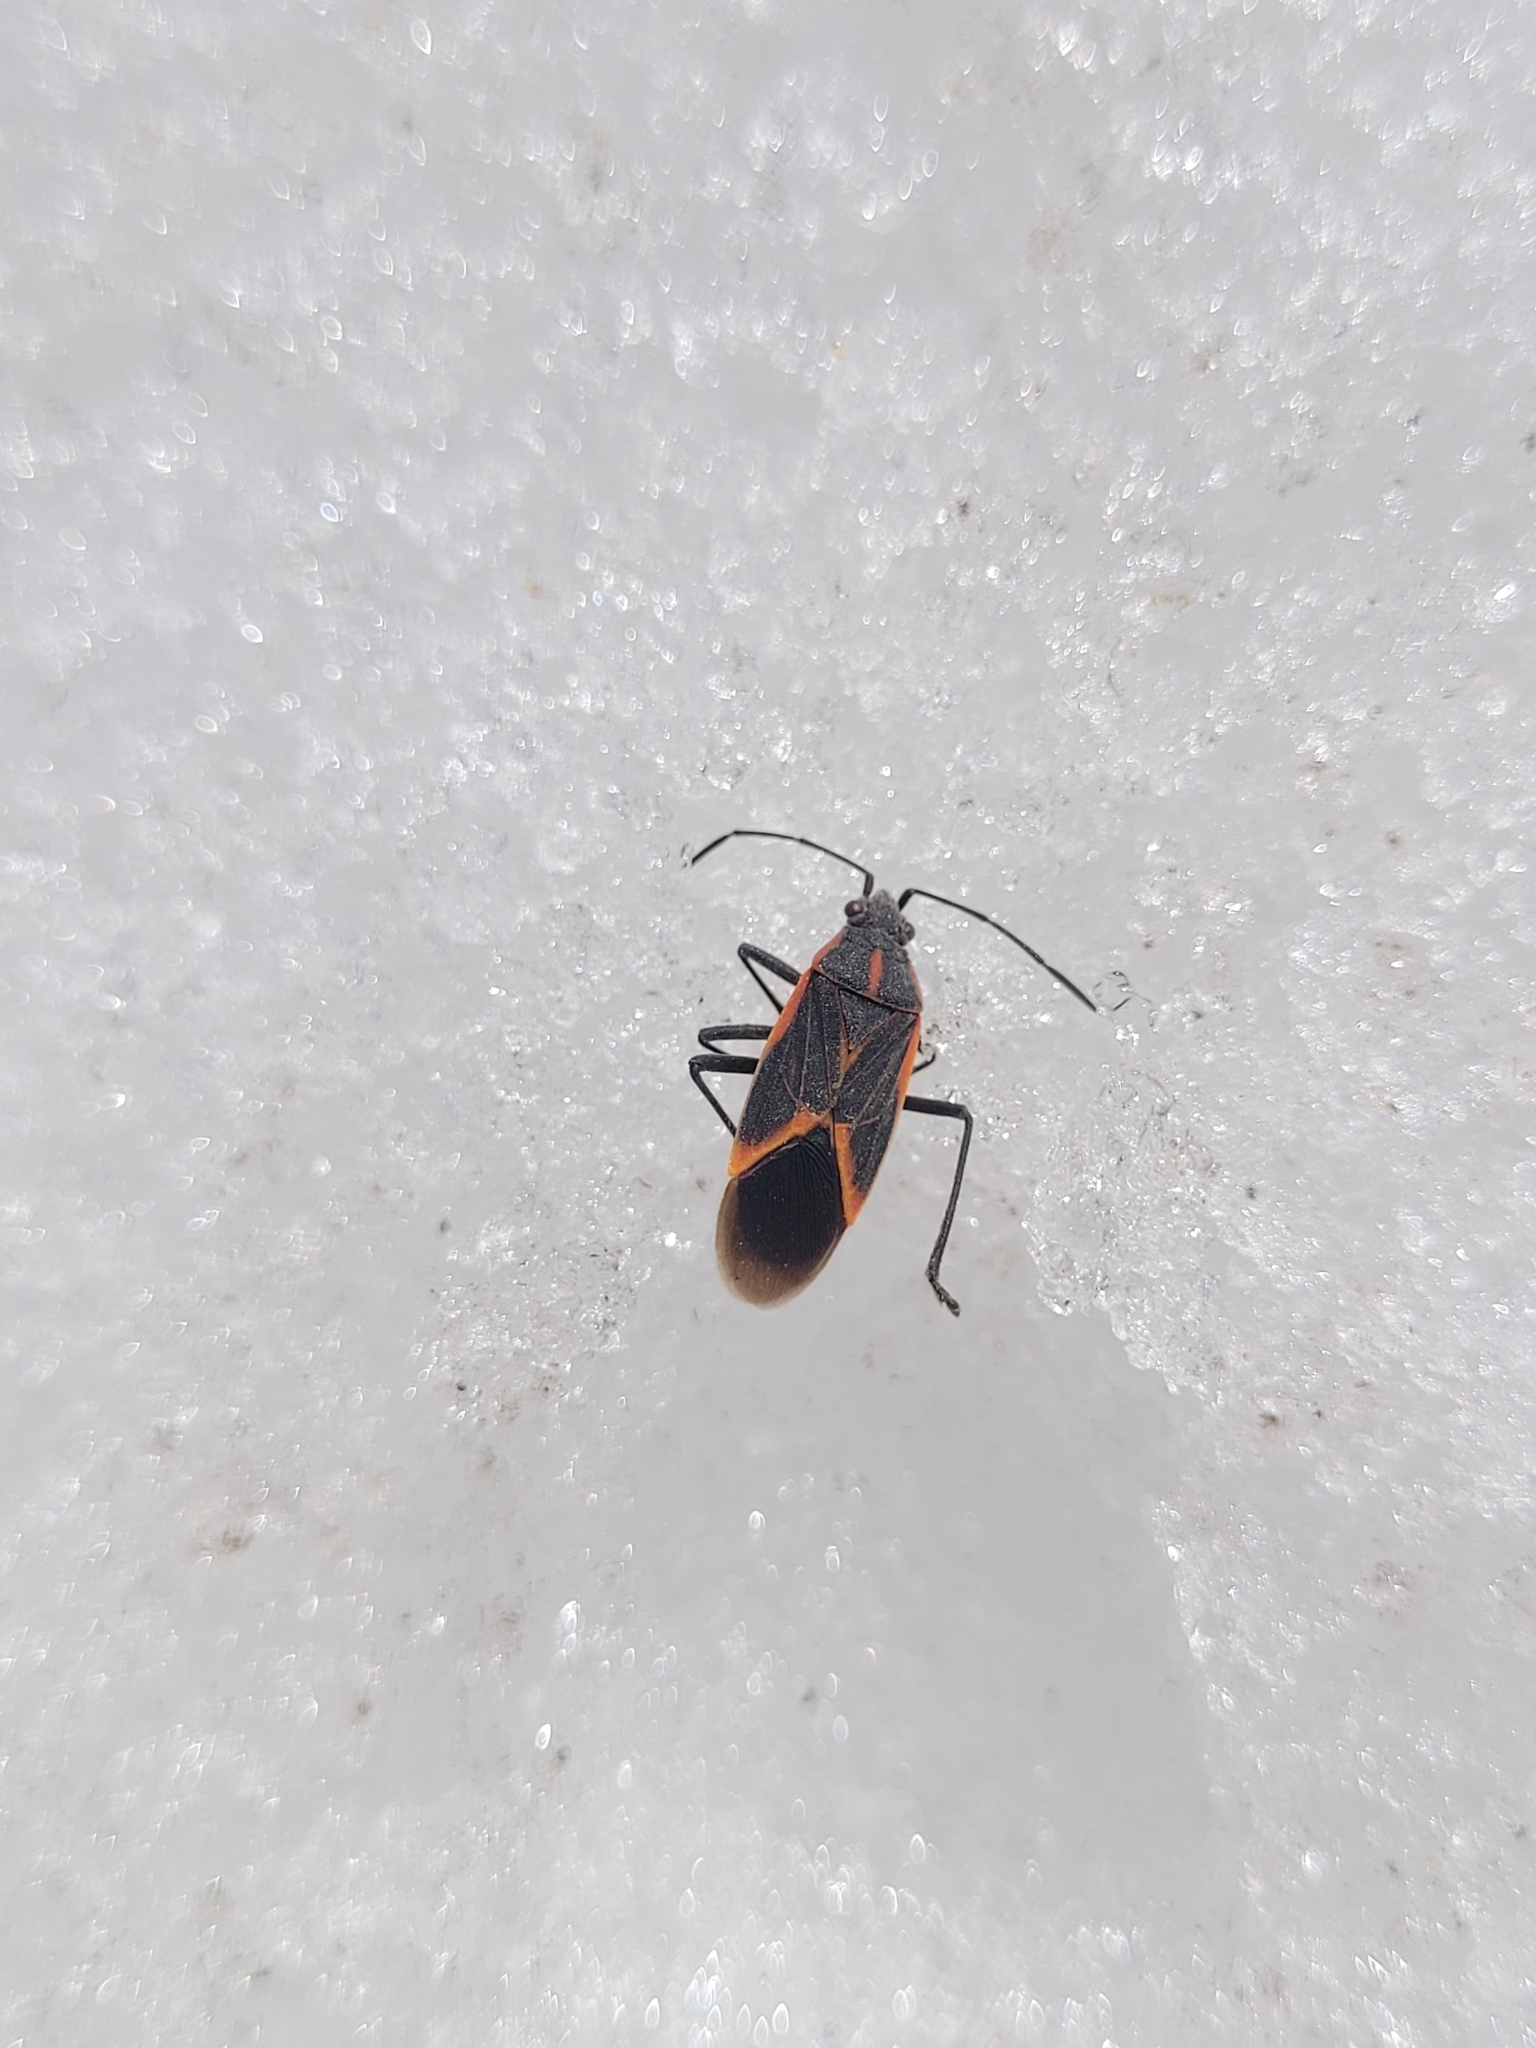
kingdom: Animalia
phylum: Arthropoda
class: Insecta
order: Hemiptera
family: Rhopalidae
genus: Boisea
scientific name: Boisea trivittata
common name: Boxelder bug
